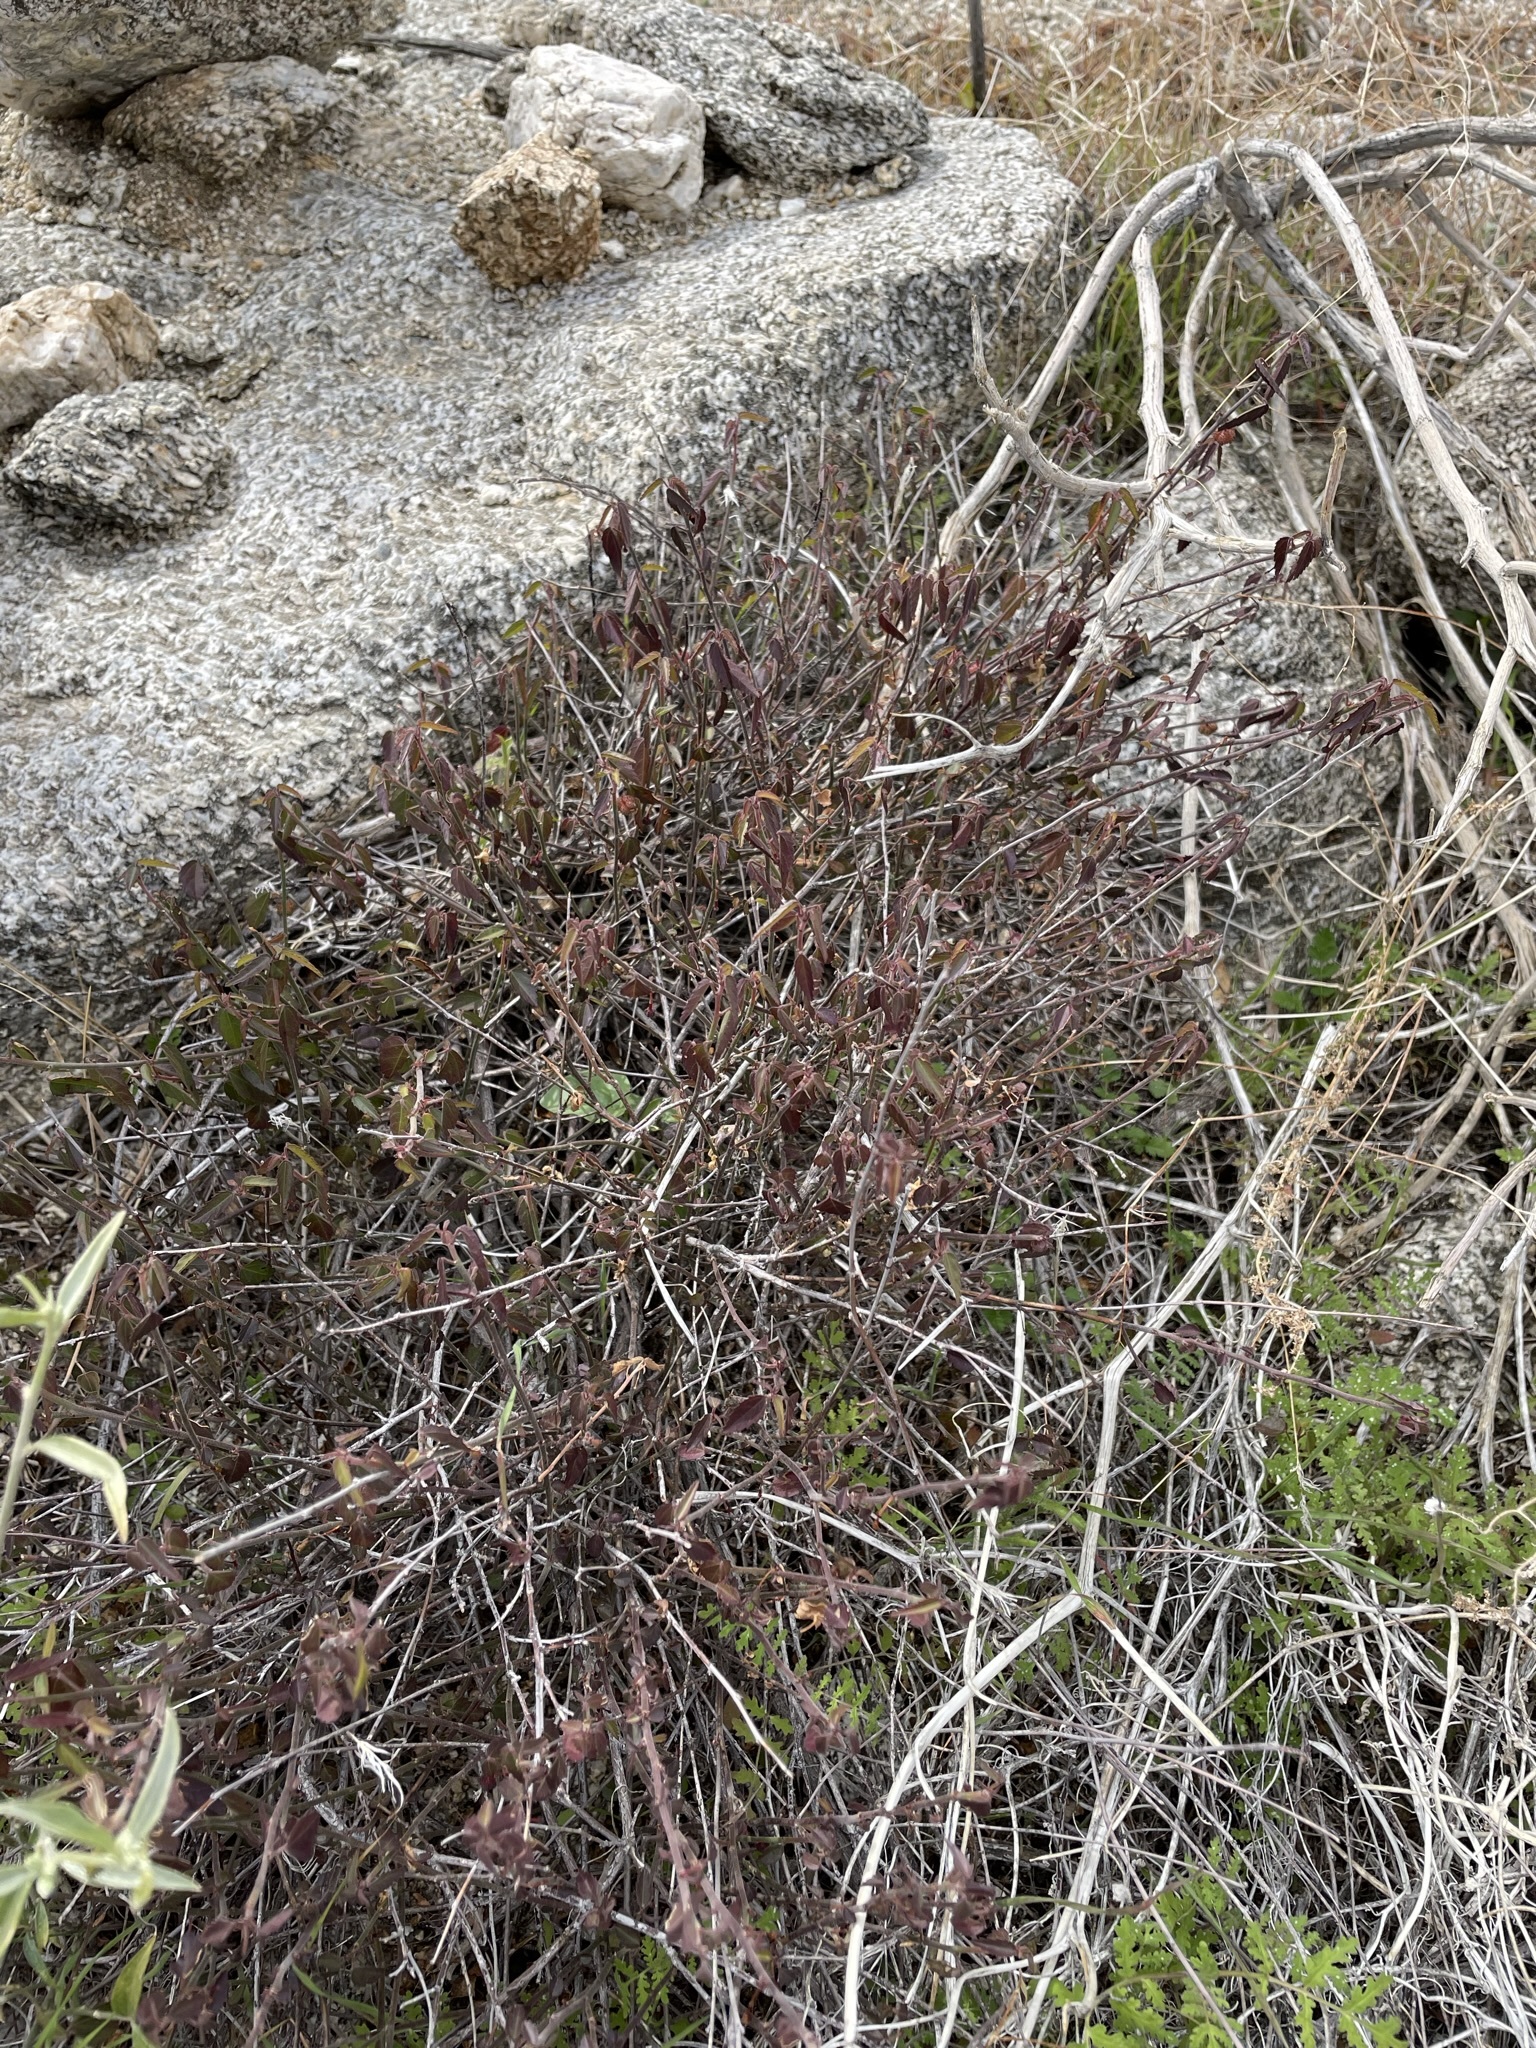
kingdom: Plantae
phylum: Tracheophyta
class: Magnoliopsida
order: Malvales
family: Malvaceae
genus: Ayenia
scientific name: Ayenia compacta
